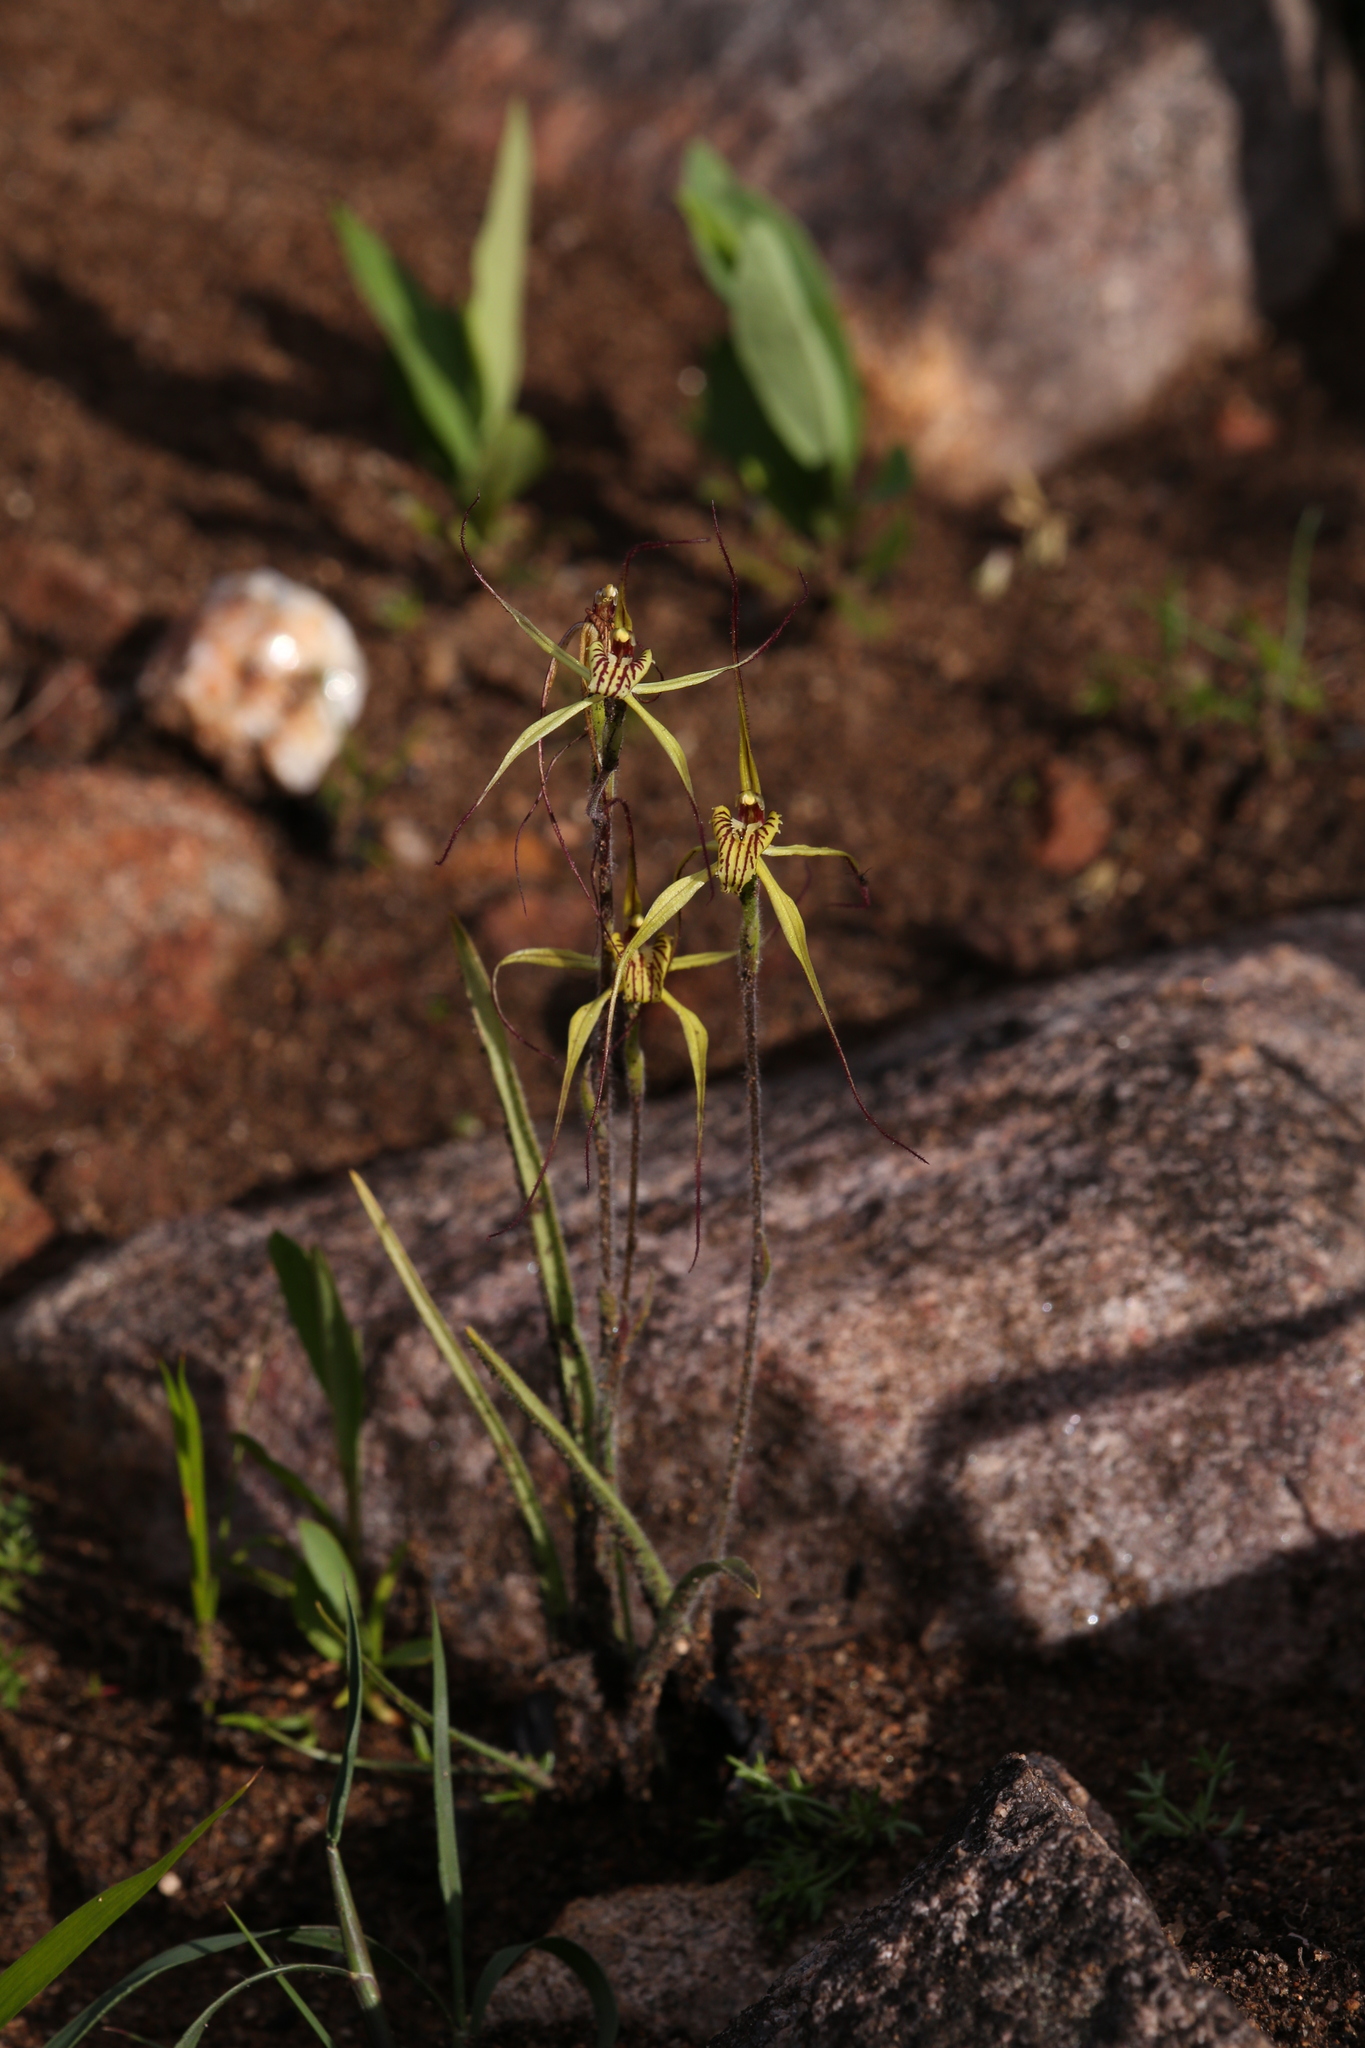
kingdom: Plantae
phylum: Tracheophyta
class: Liliopsida
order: Asparagales
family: Orchidaceae
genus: Caladenia
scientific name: Caladenia caesarea
